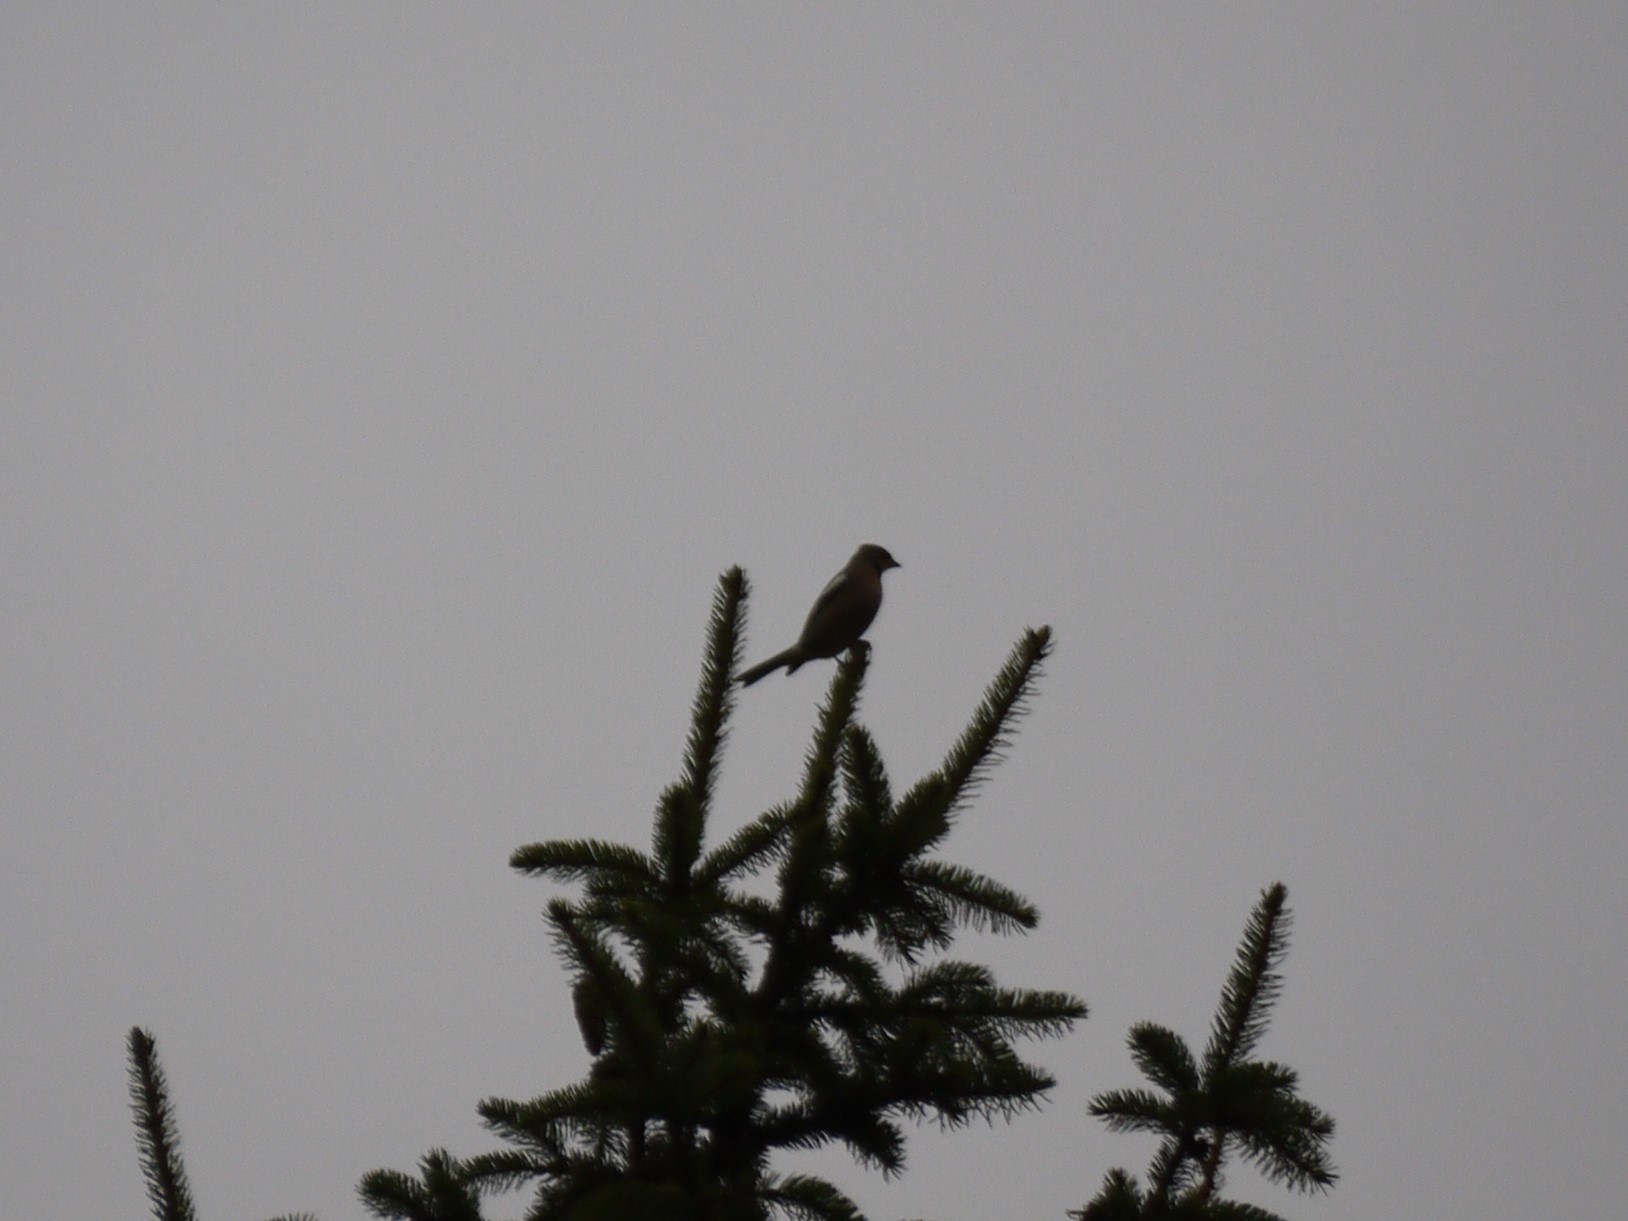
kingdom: Animalia
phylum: Chordata
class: Aves
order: Passeriformes
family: Fringillidae
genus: Fringilla
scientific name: Fringilla coelebs
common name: Common chaffinch
